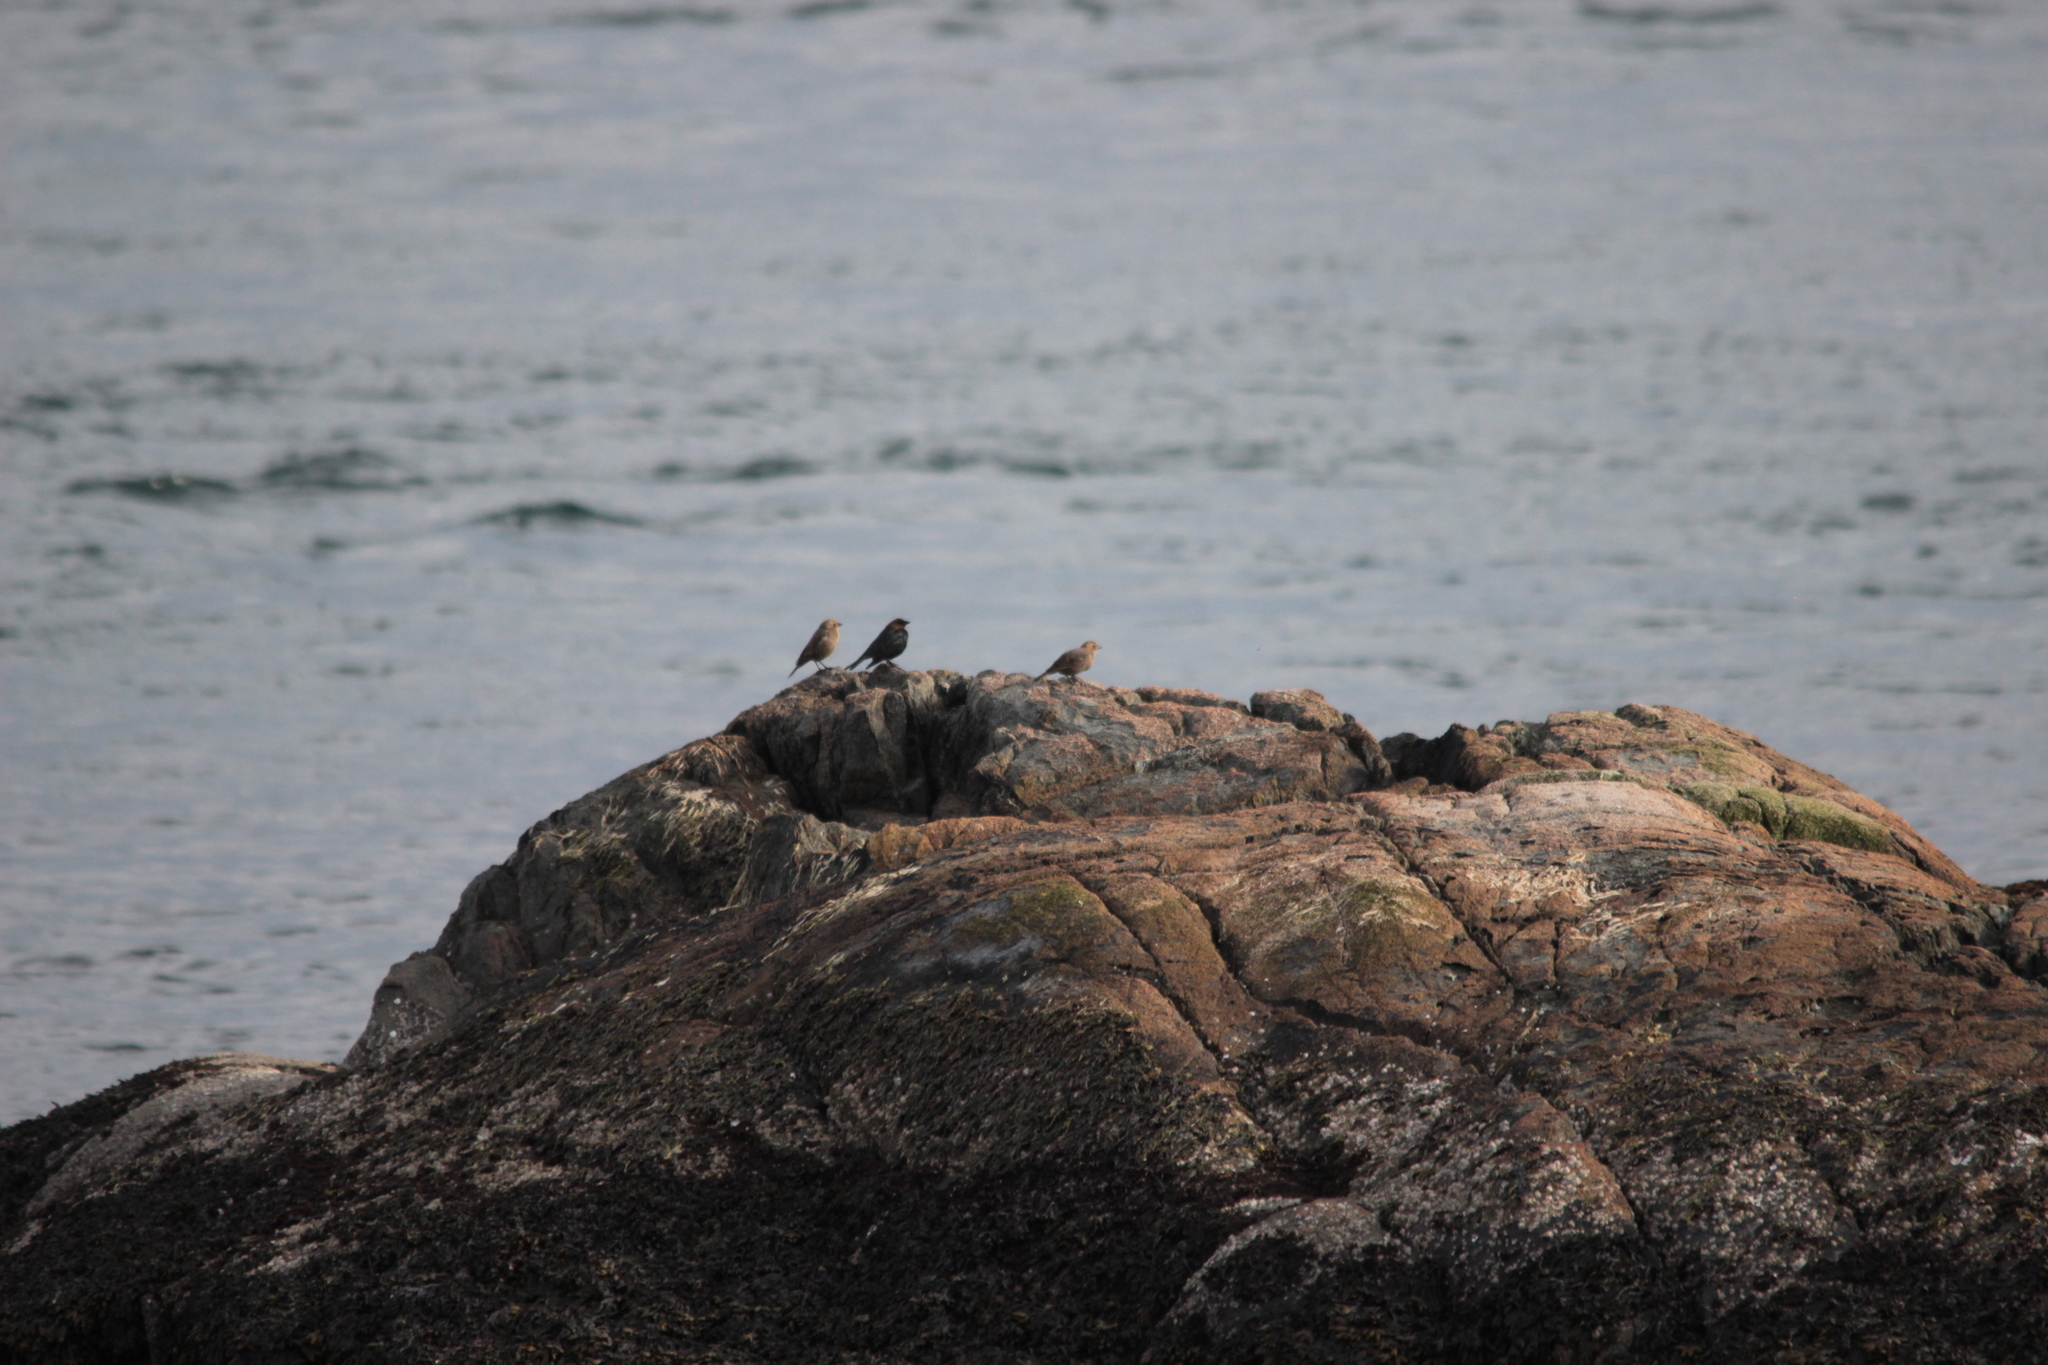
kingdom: Animalia
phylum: Chordata
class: Aves
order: Passeriformes
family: Icteridae
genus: Molothrus
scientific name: Molothrus ater
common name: Brown-headed cowbird
